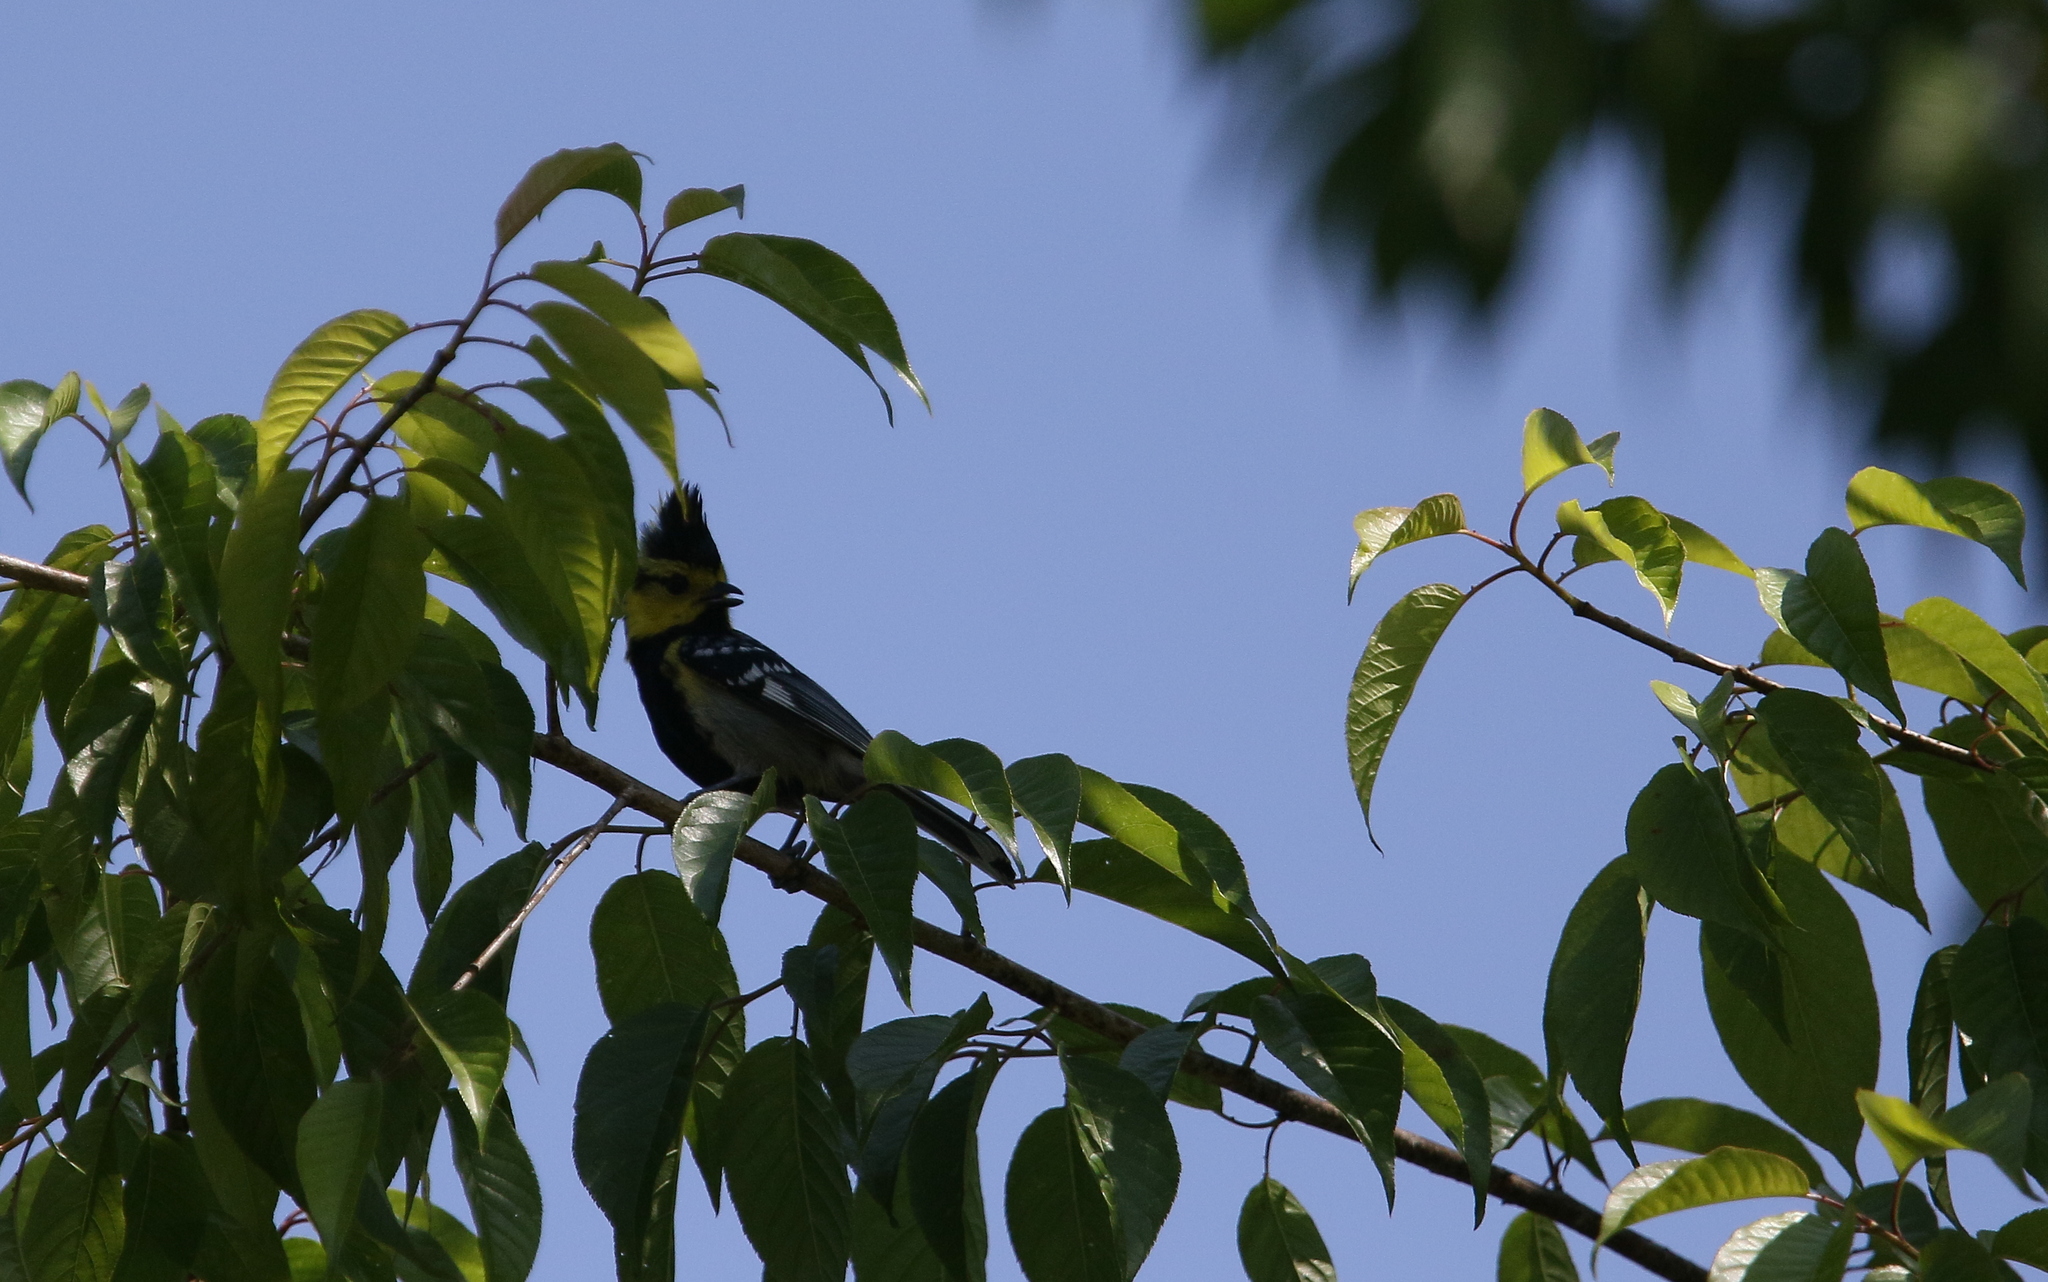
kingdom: Animalia
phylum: Chordata
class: Aves
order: Passeriformes
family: Paridae
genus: Parus
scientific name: Parus spilonotus
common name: Yellow-cheeked tit
